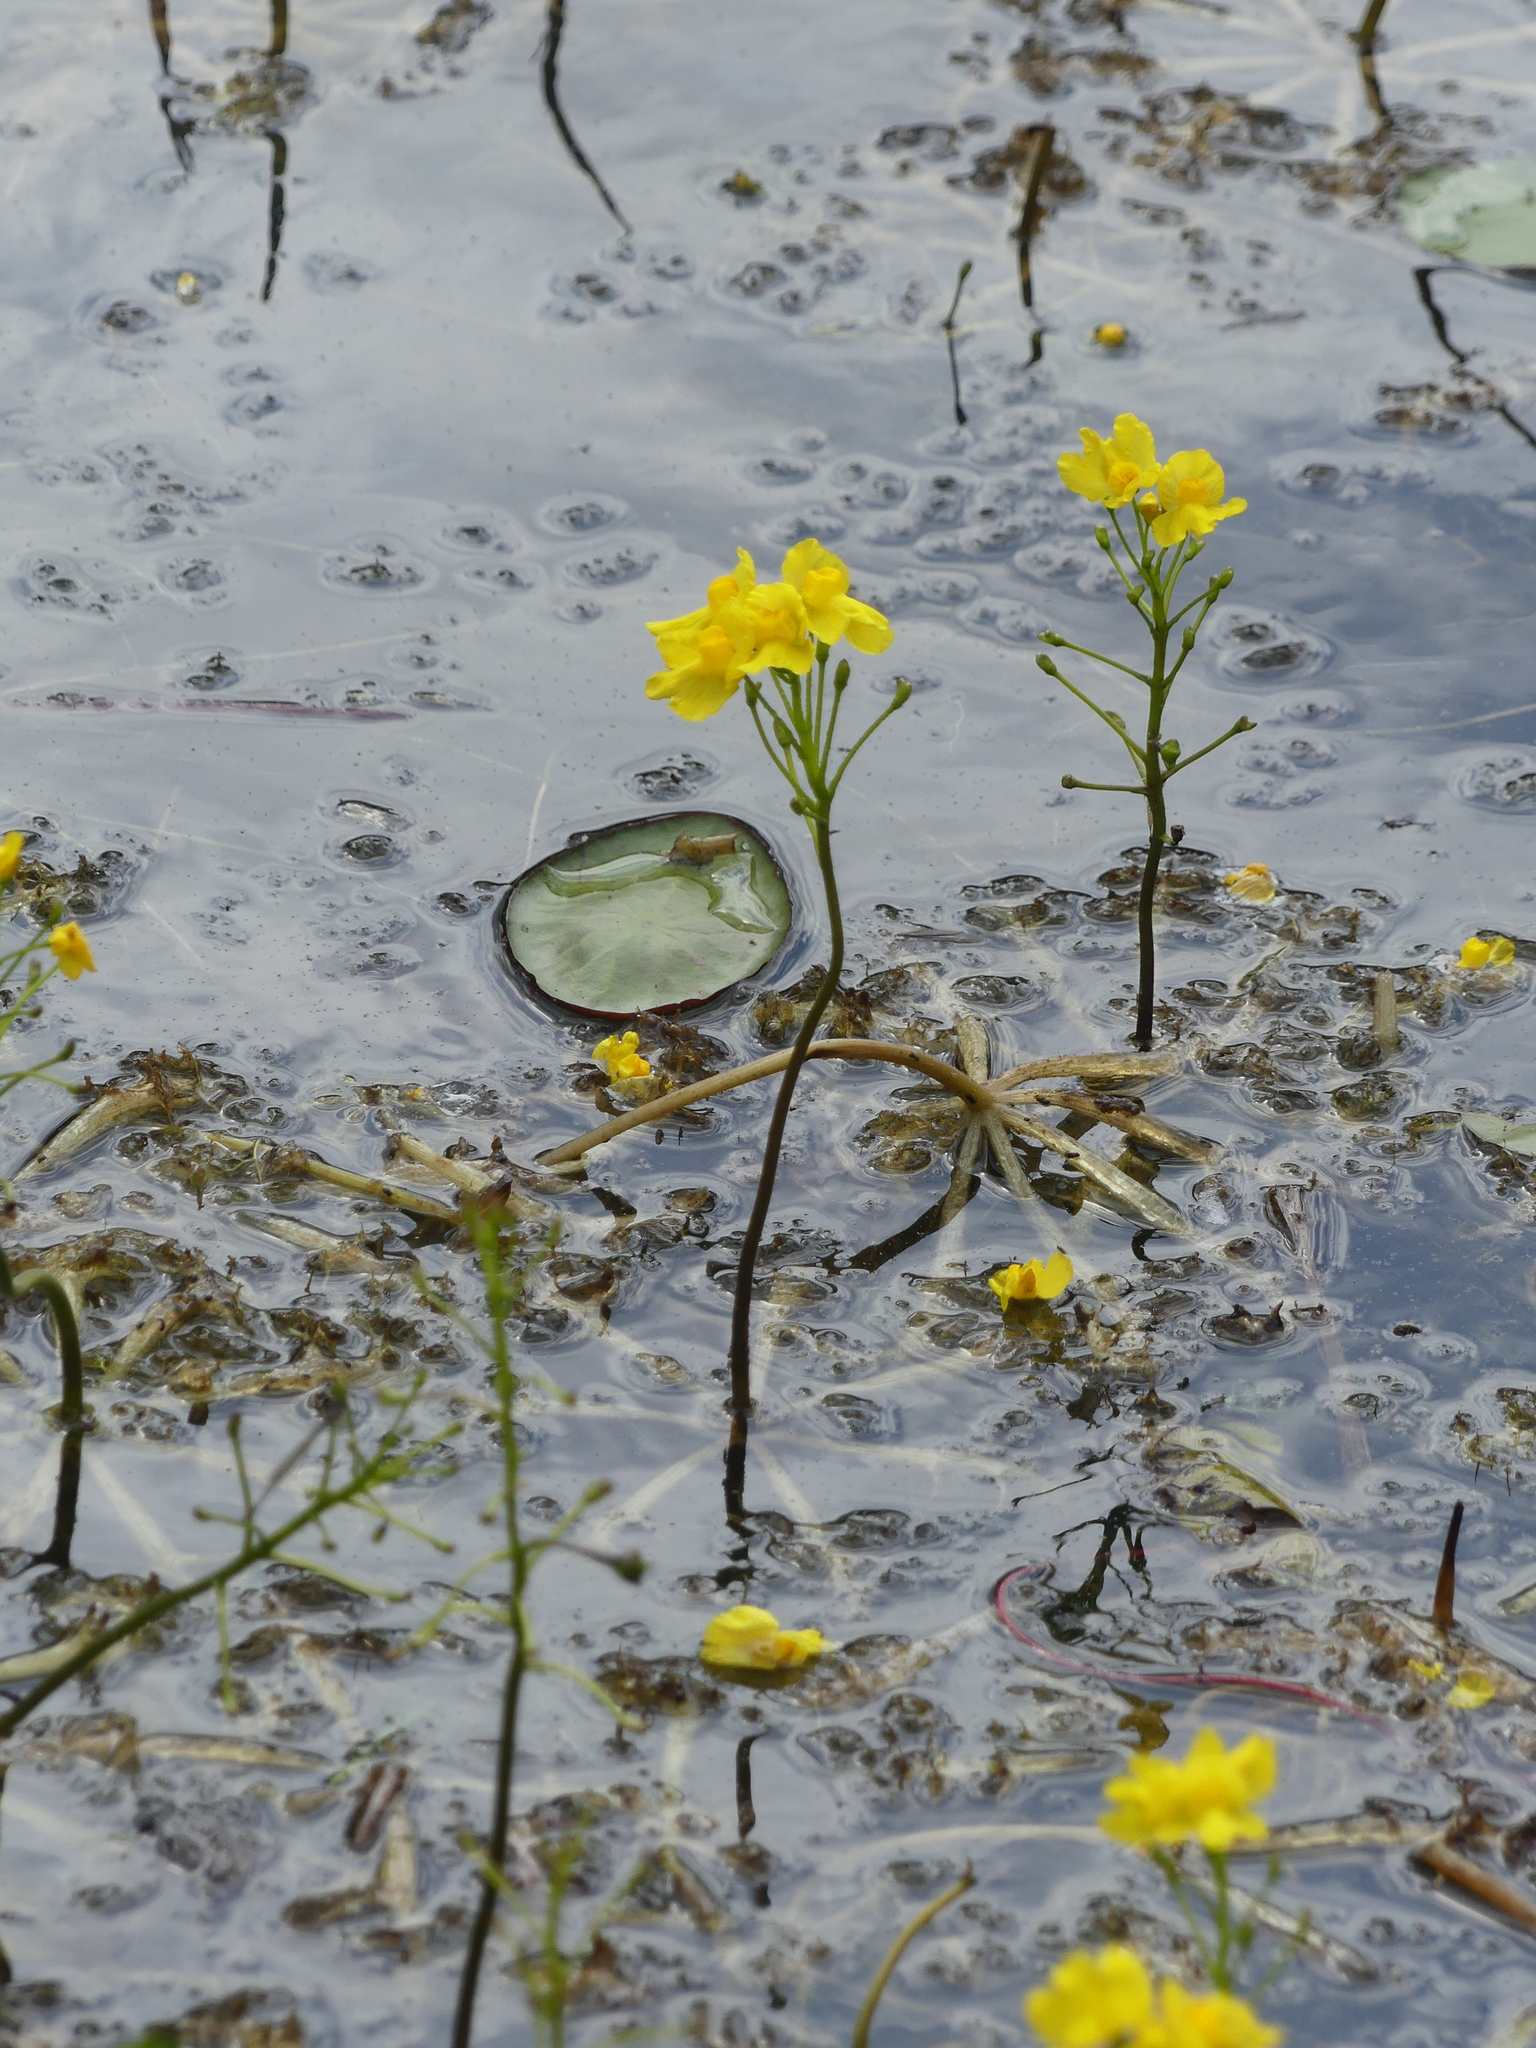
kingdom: Plantae
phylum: Tracheophyta
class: Magnoliopsida
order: Lamiales
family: Lentibulariaceae
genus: Utricularia
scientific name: Utricularia inflata
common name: Floating bladderwort
